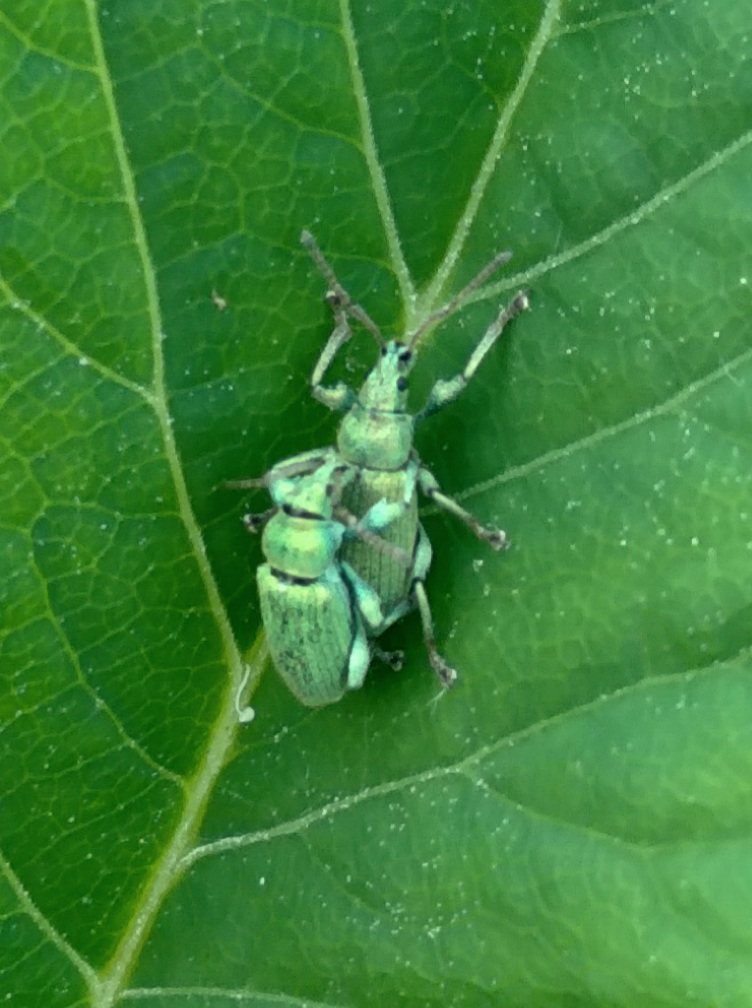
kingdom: Animalia
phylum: Arthropoda
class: Insecta
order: Coleoptera
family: Curculionidae
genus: Phyllobius
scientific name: Phyllobius maculicornis
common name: Green leaf weevil
